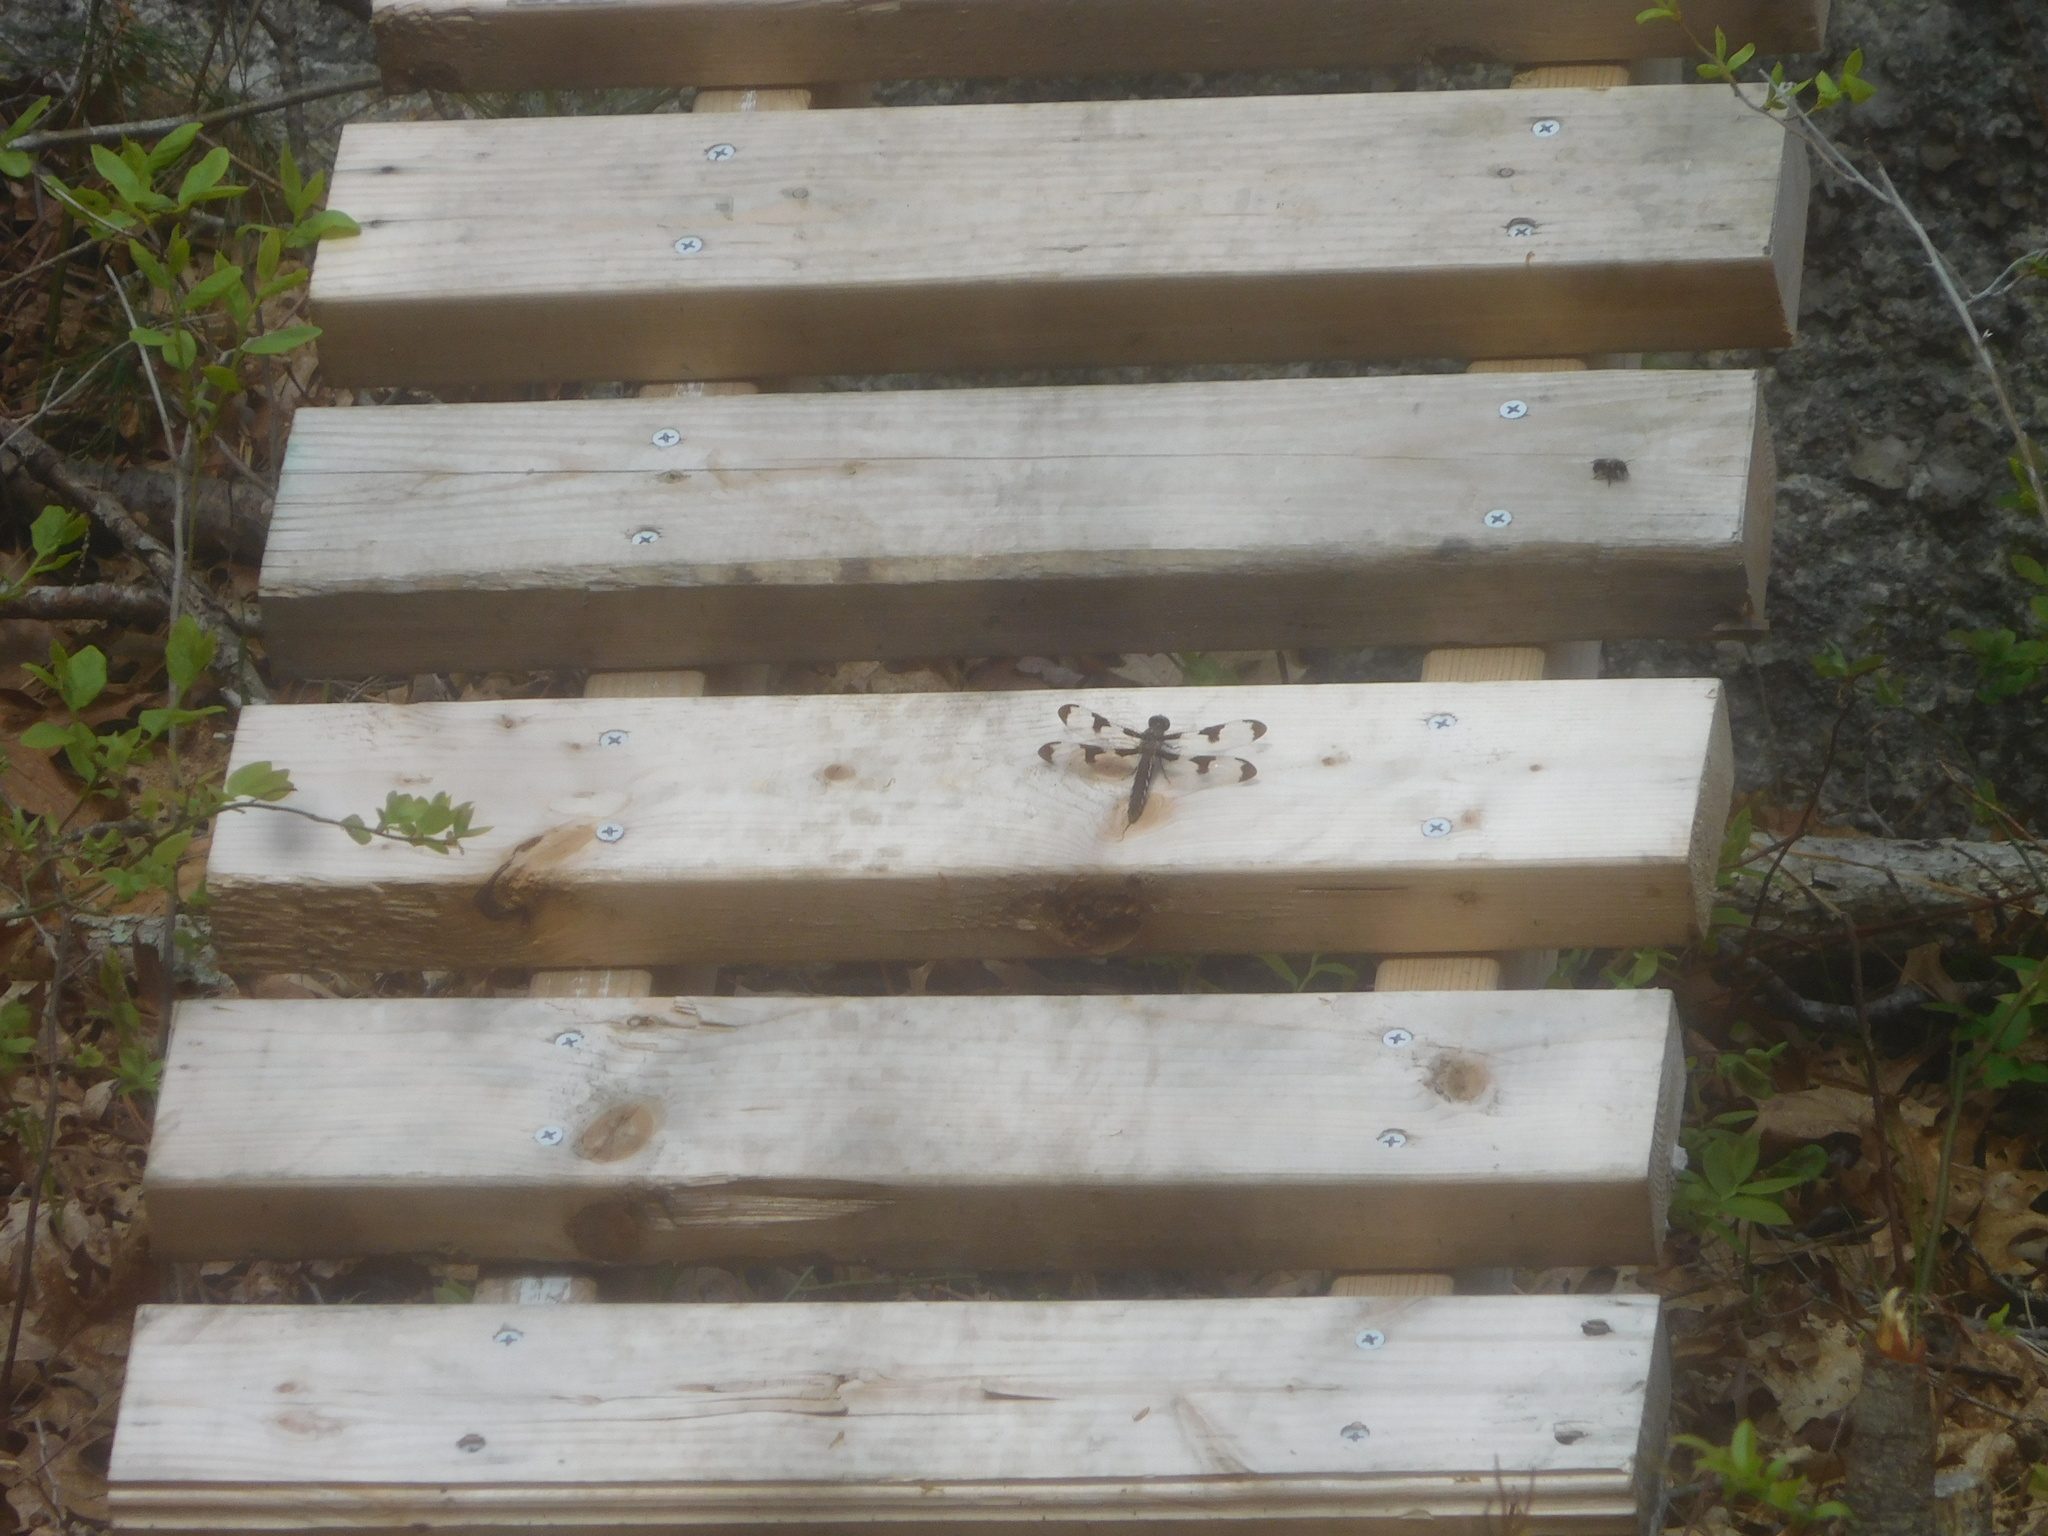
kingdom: Animalia
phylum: Arthropoda
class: Insecta
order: Odonata
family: Libellulidae
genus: Plathemis
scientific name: Plathemis lydia
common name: Common whitetail
